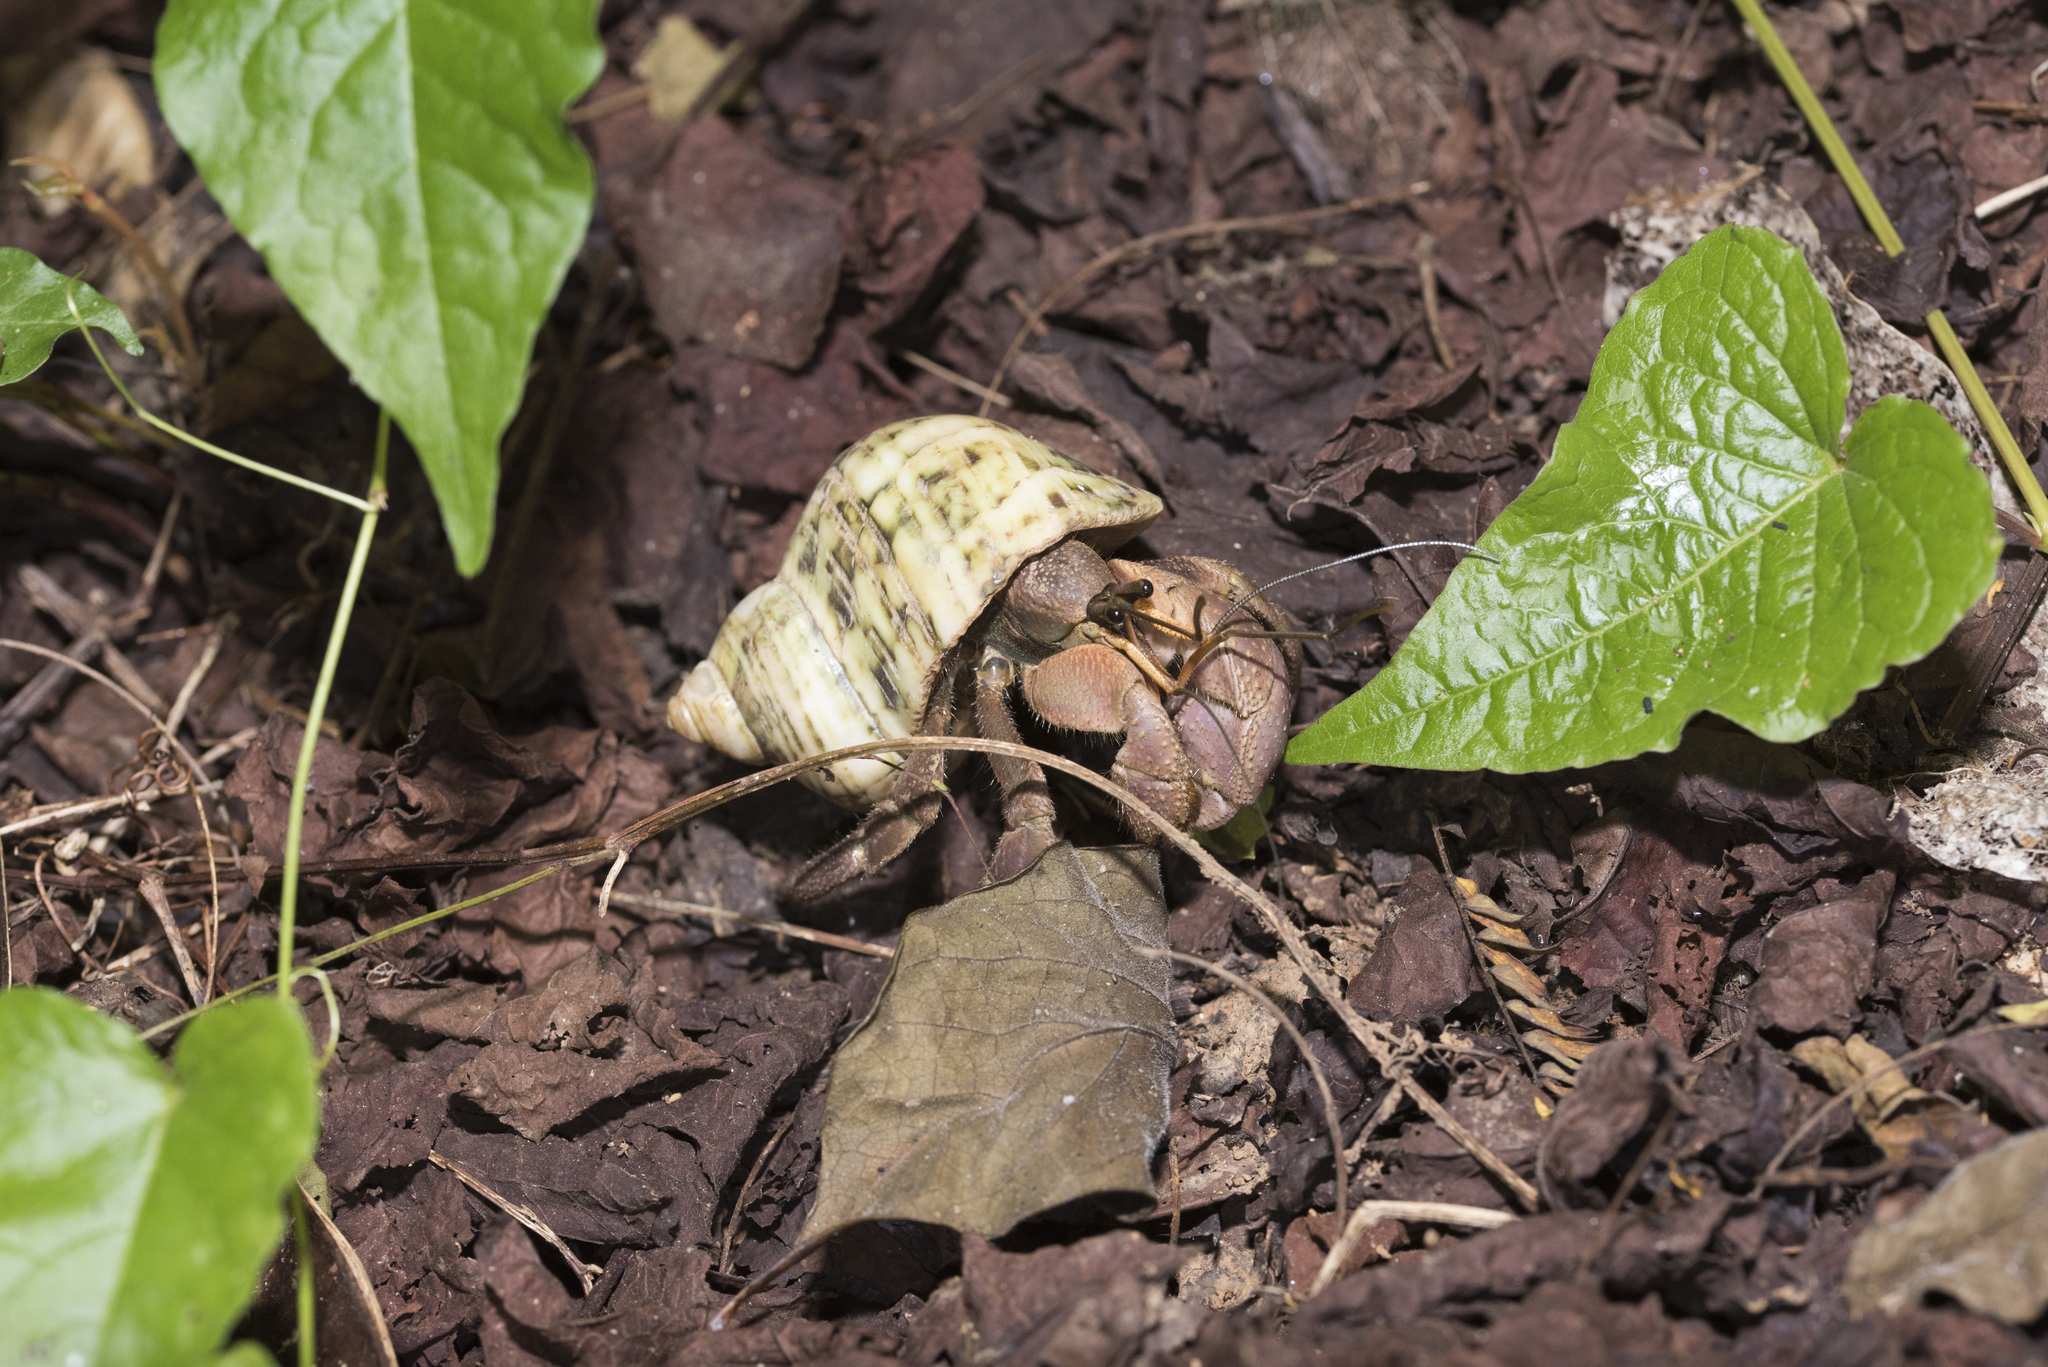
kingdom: Animalia
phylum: Arthropoda
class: Malacostraca
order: Decapoda
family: Coenobitidae
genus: Coenobita
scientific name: Coenobita brevimanus
